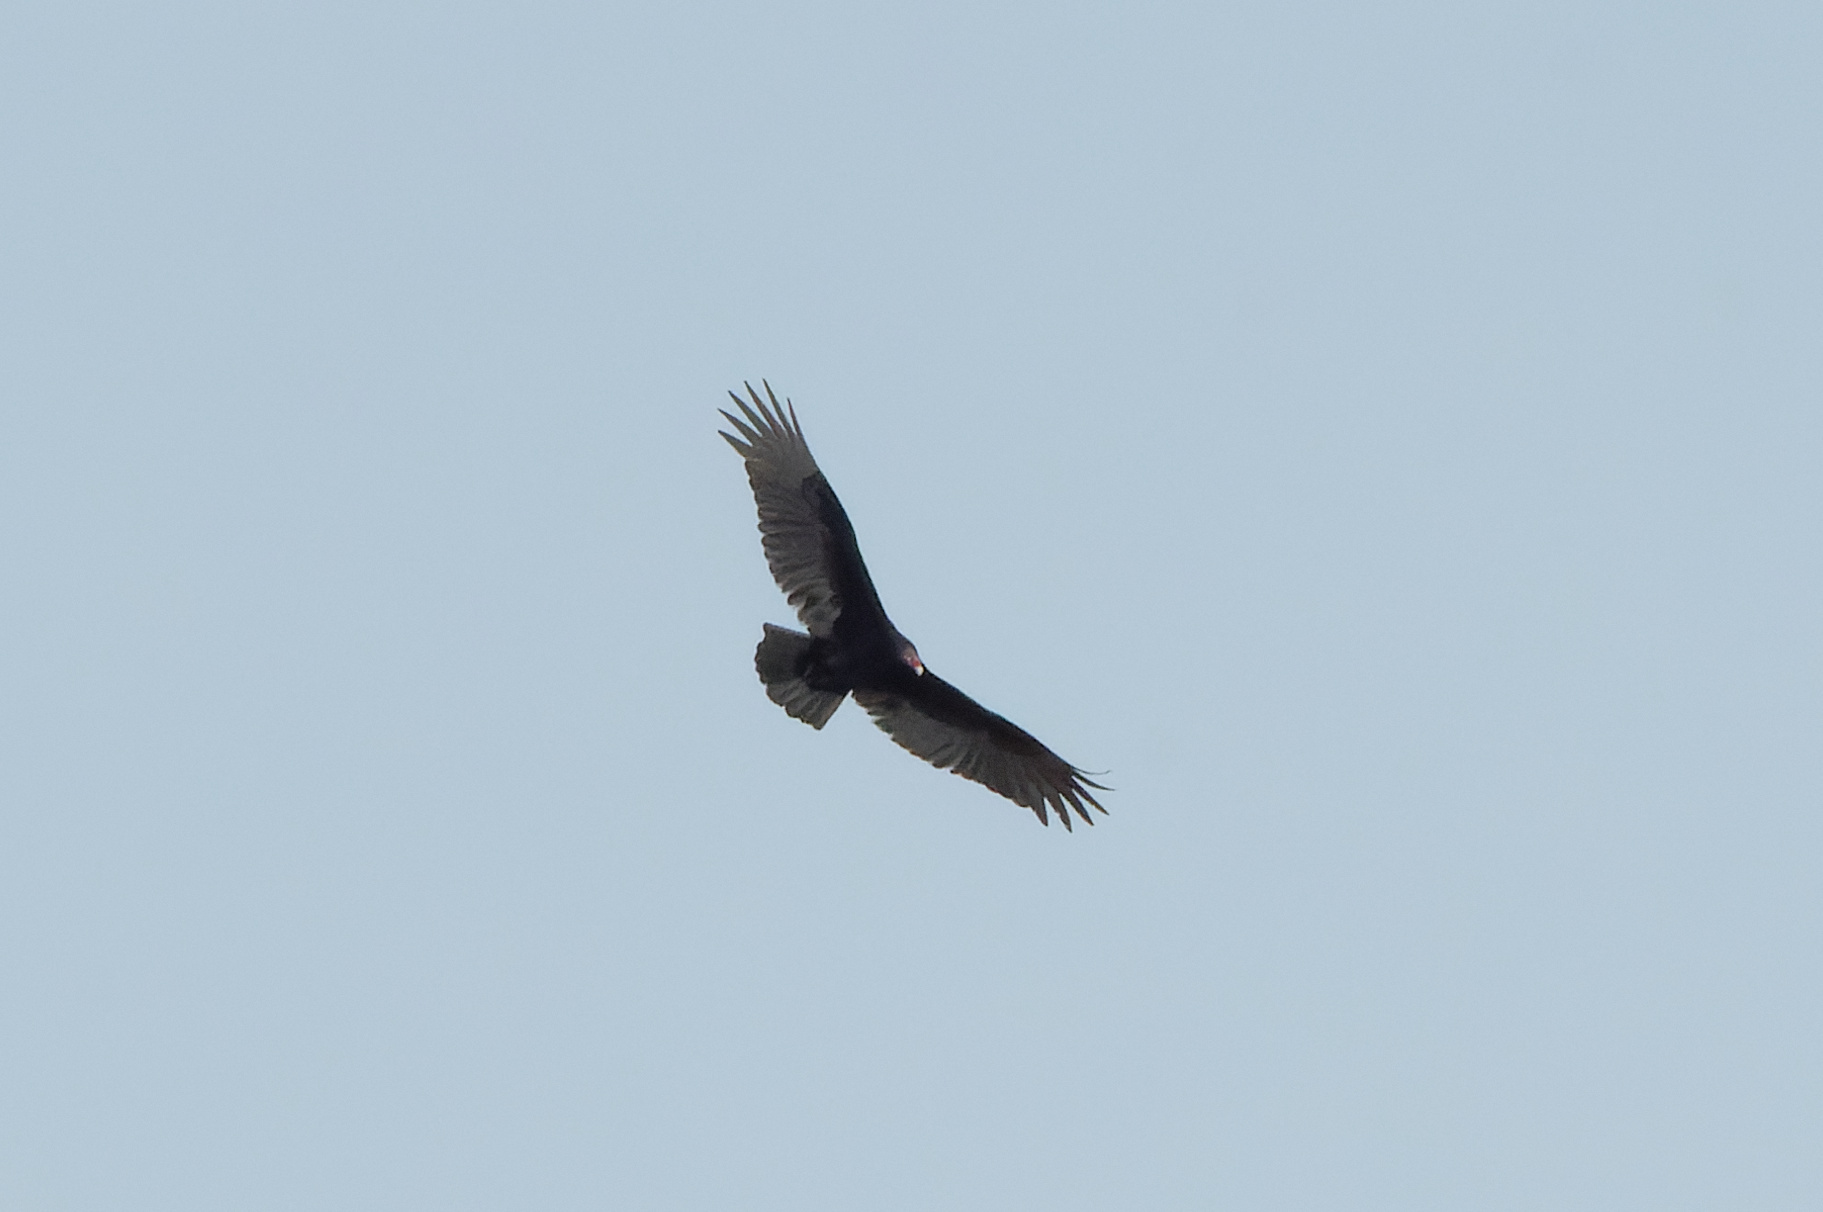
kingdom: Animalia
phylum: Chordata
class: Aves
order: Accipitriformes
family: Cathartidae
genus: Cathartes
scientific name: Cathartes aura
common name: Turkey vulture
